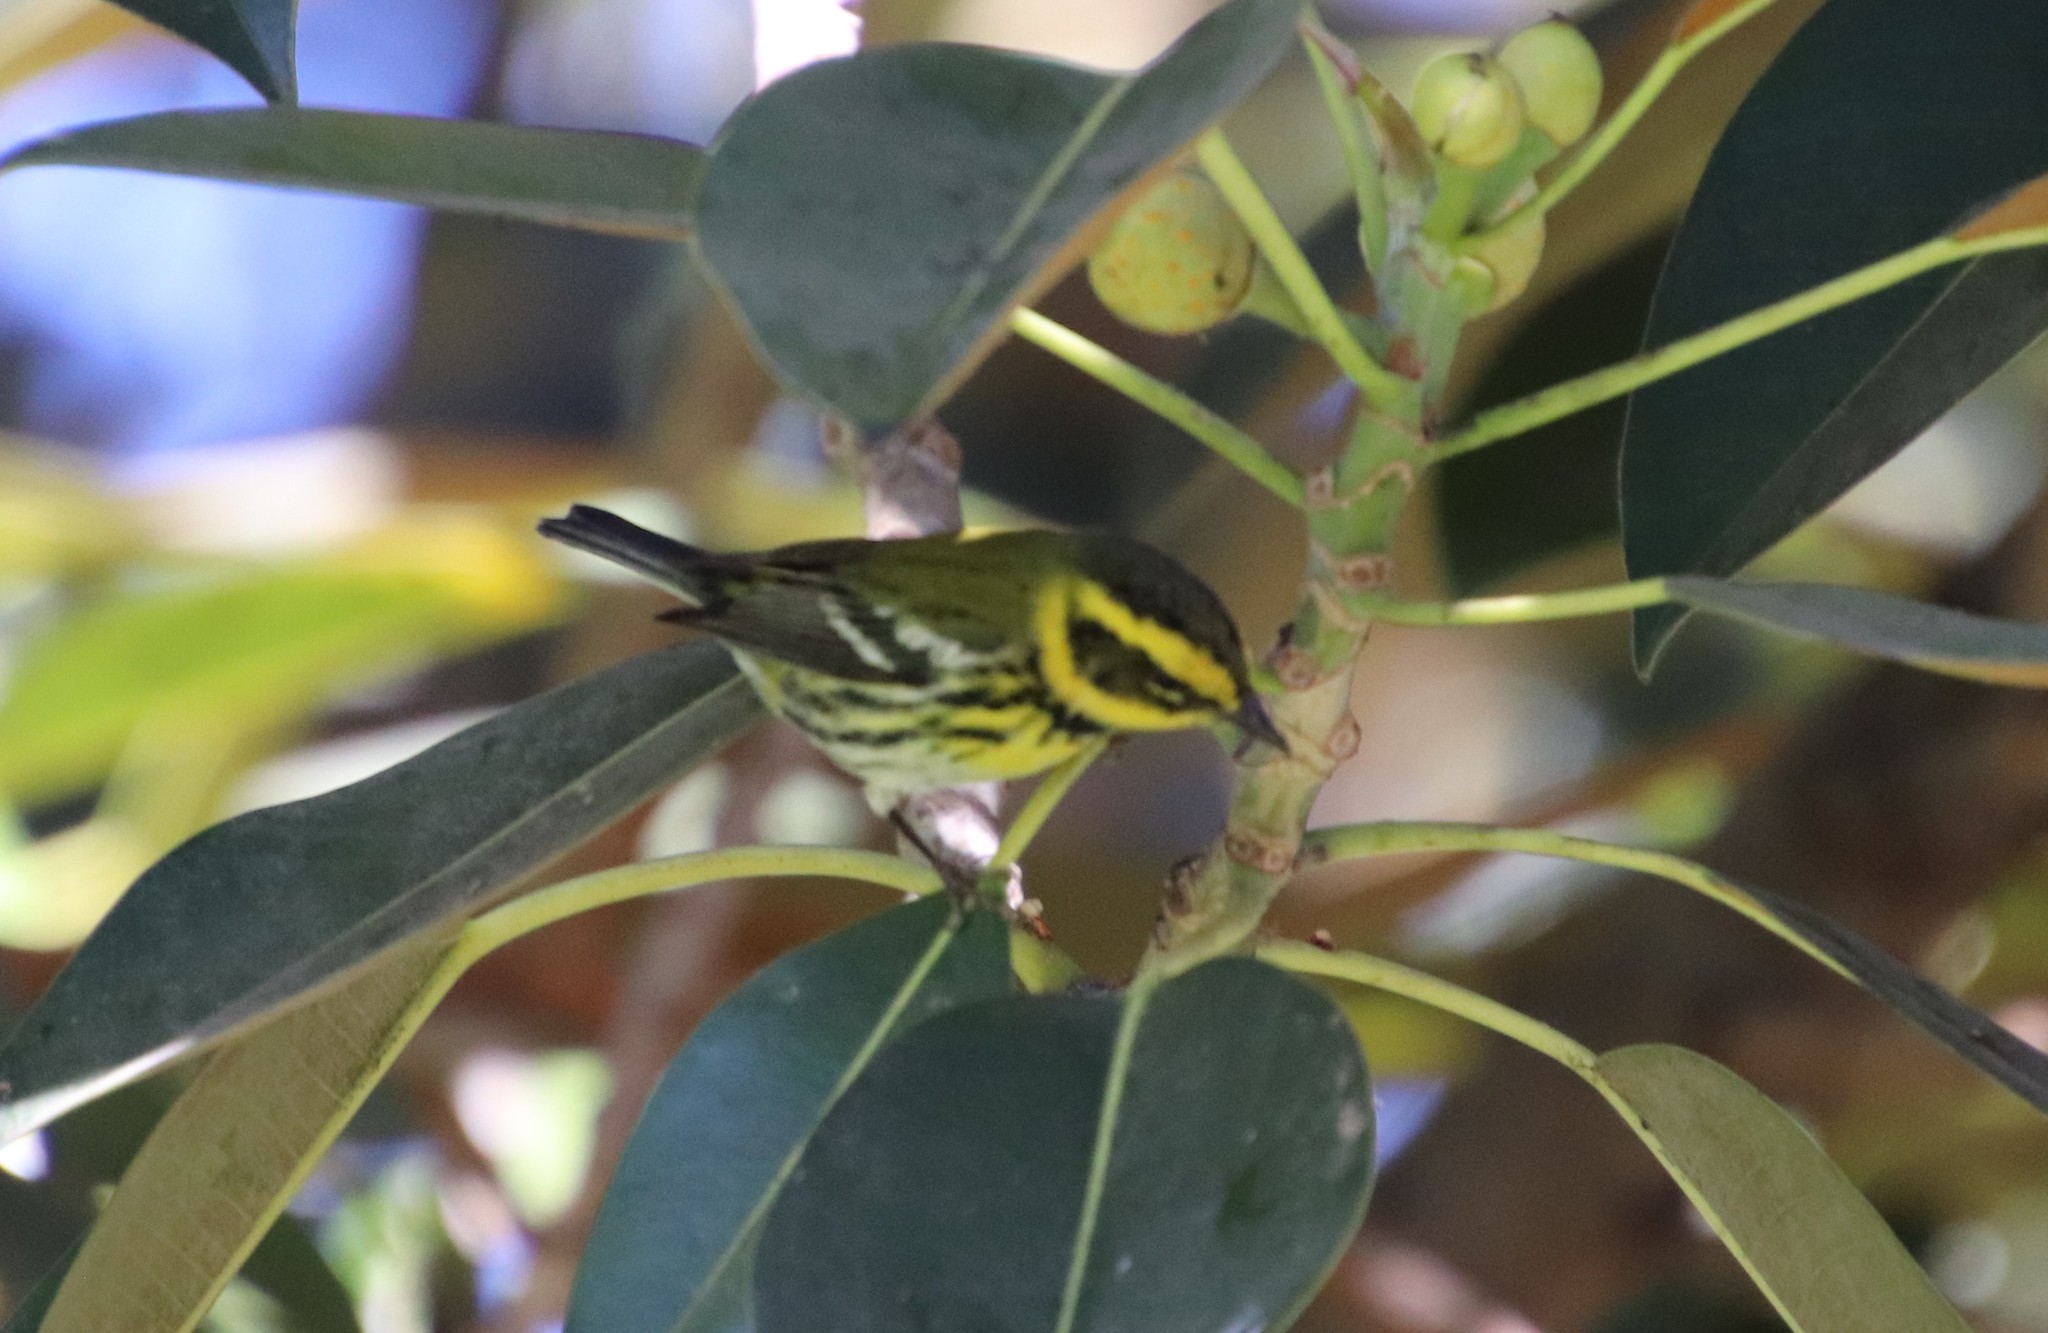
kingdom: Animalia
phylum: Chordata
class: Aves
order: Passeriformes
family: Parulidae
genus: Setophaga
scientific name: Setophaga townsendi
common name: Townsend's warbler
